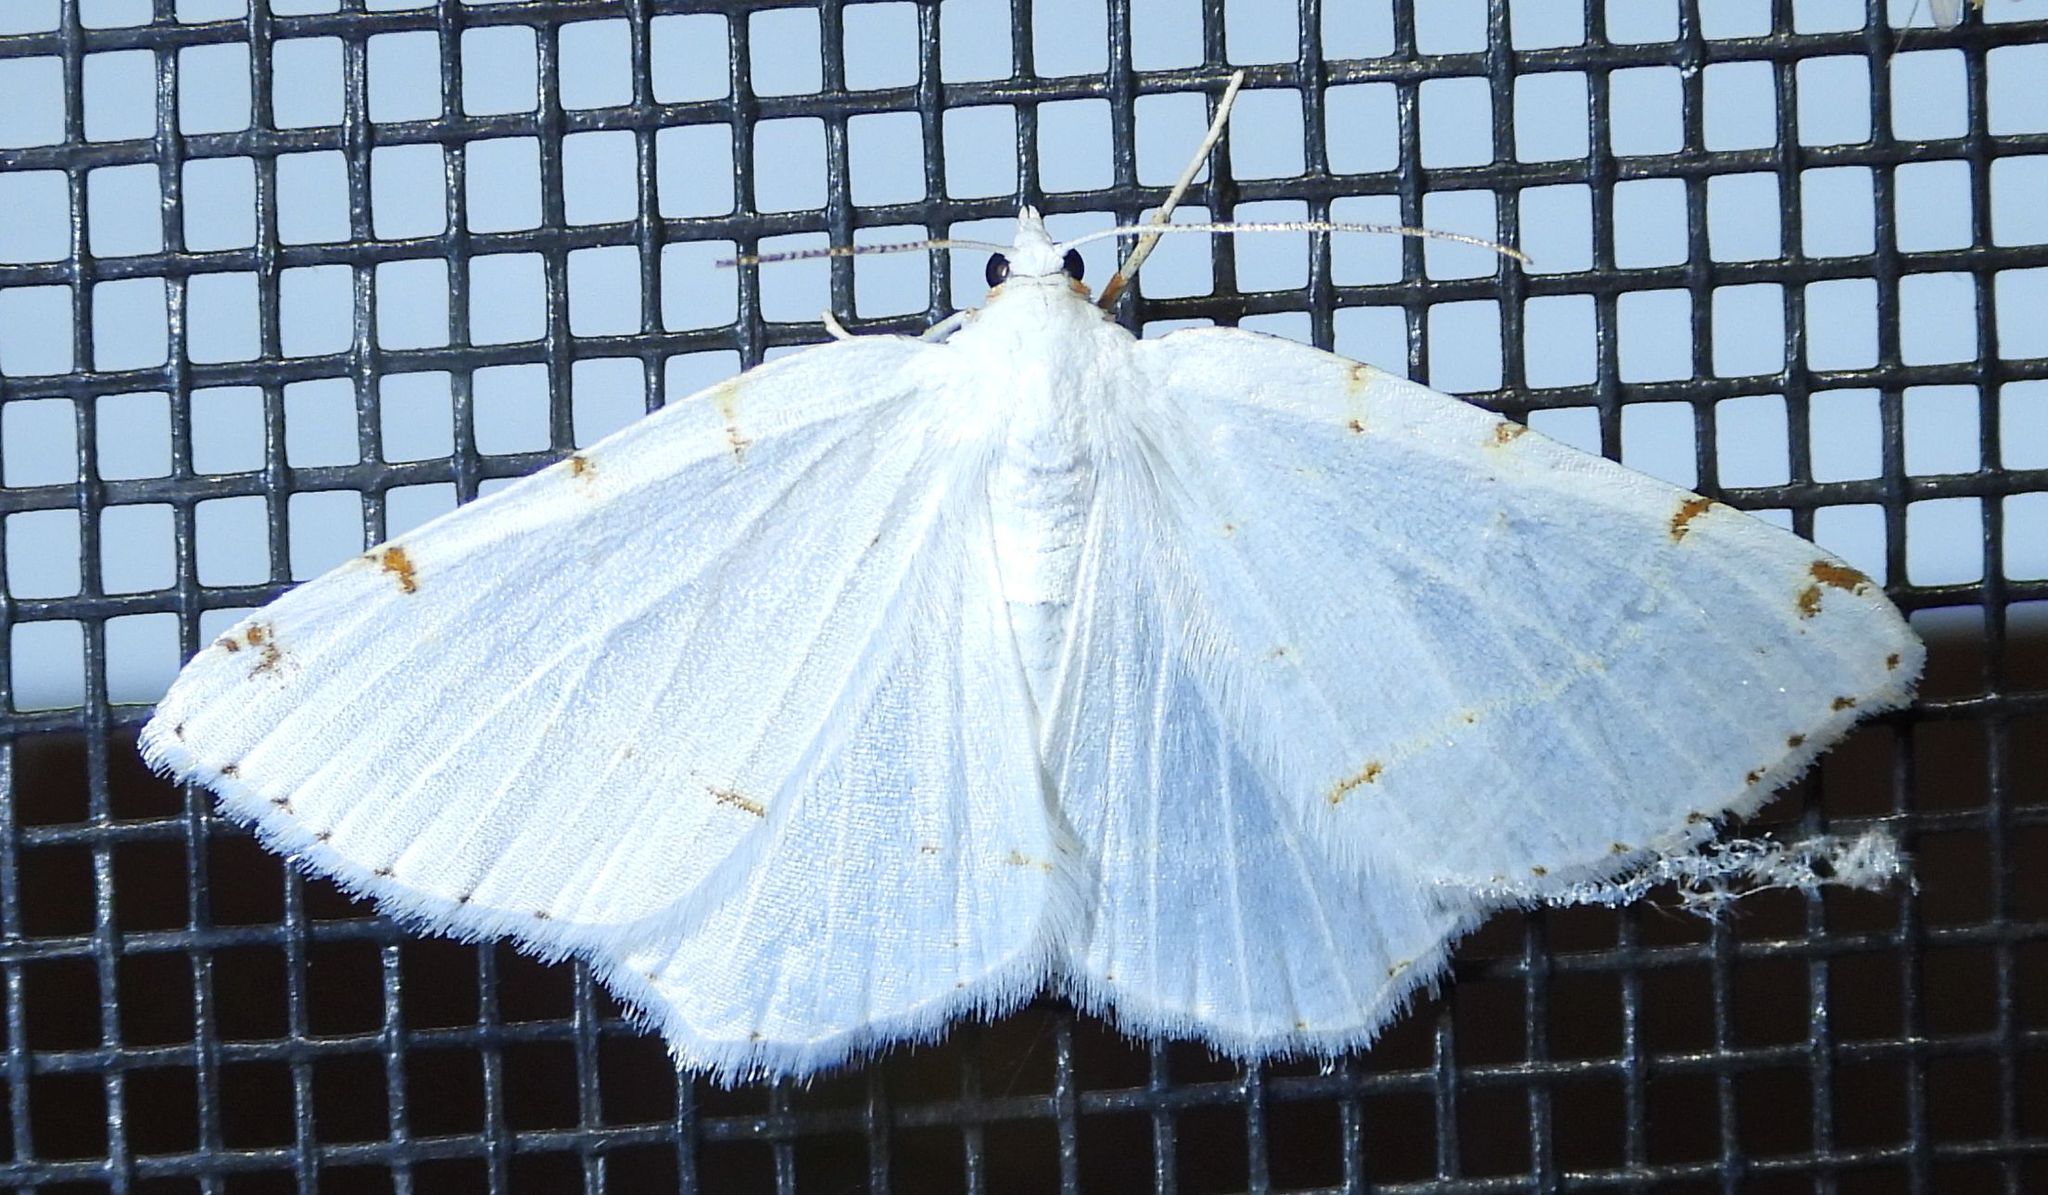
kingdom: Animalia
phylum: Arthropoda
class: Insecta
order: Lepidoptera
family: Geometridae
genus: Macaria
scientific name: Macaria pustularia
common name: Lesser maple spanworm moth
